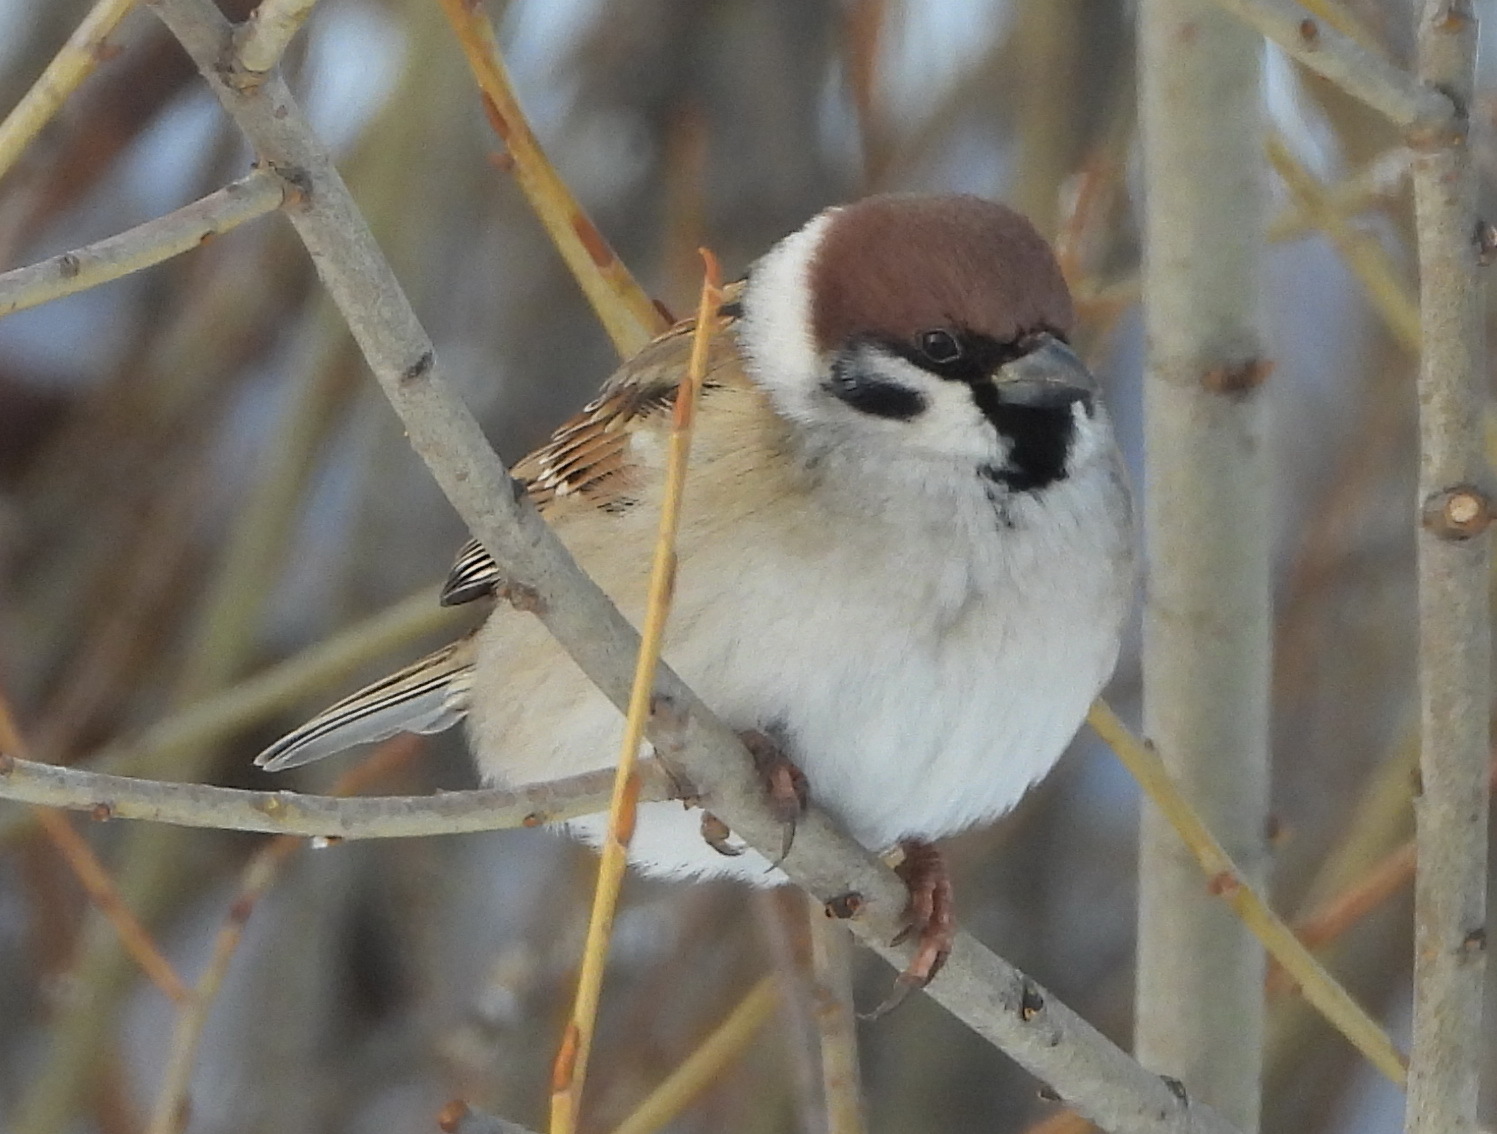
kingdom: Animalia
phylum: Chordata
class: Aves
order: Passeriformes
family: Passeridae
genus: Passer
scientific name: Passer montanus
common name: Eurasian tree sparrow
